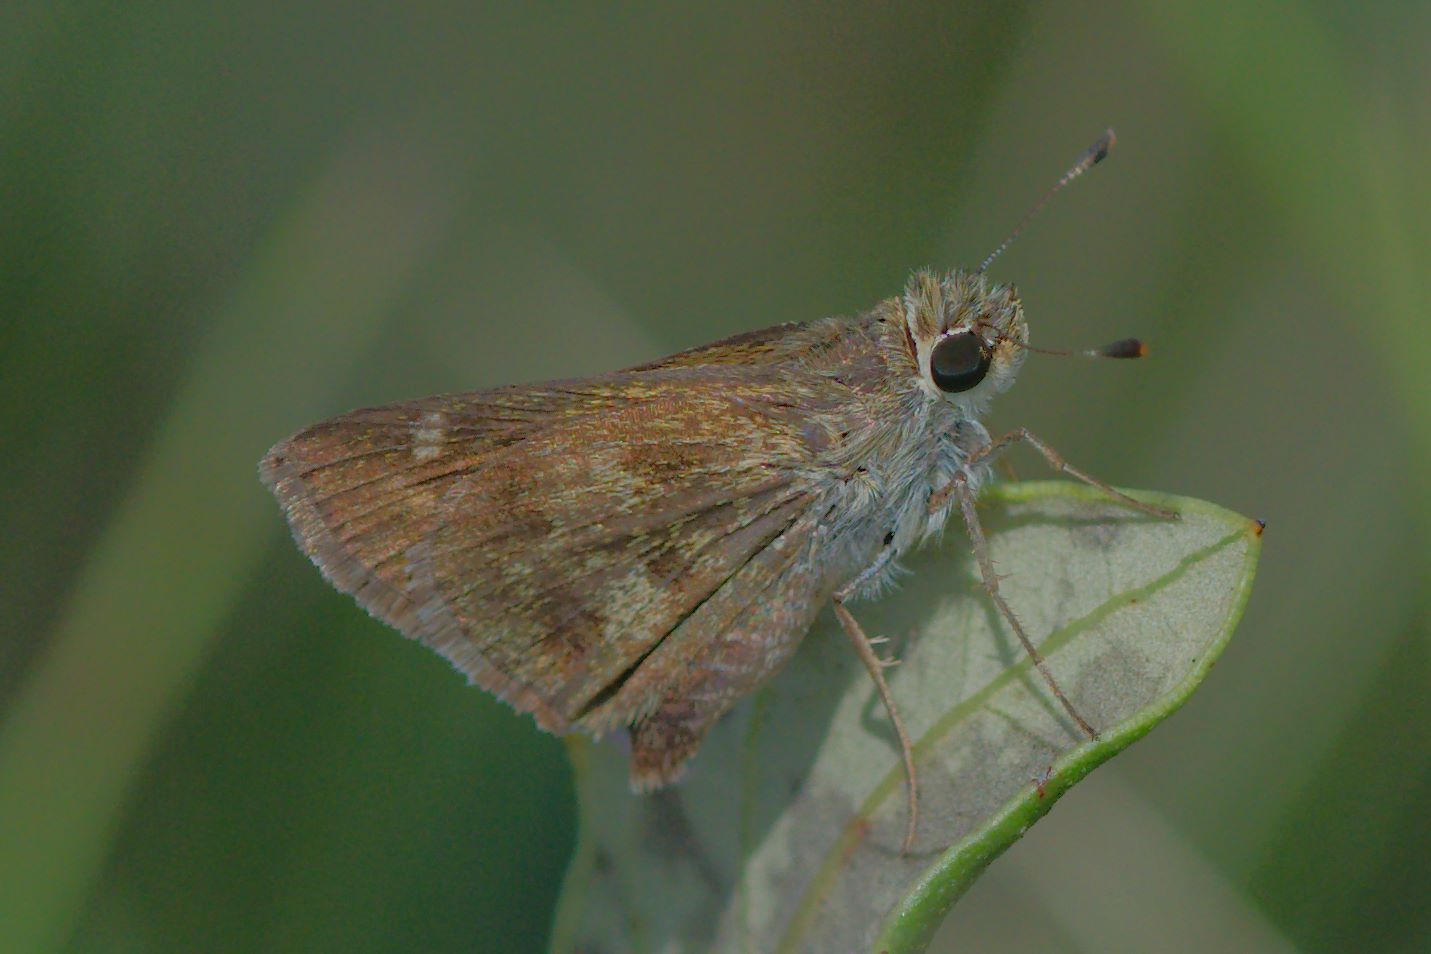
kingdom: Animalia
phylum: Arthropoda
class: Insecta
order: Lepidoptera
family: Hesperiidae
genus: Polites
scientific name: Polites vibex
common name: Whirlabout
